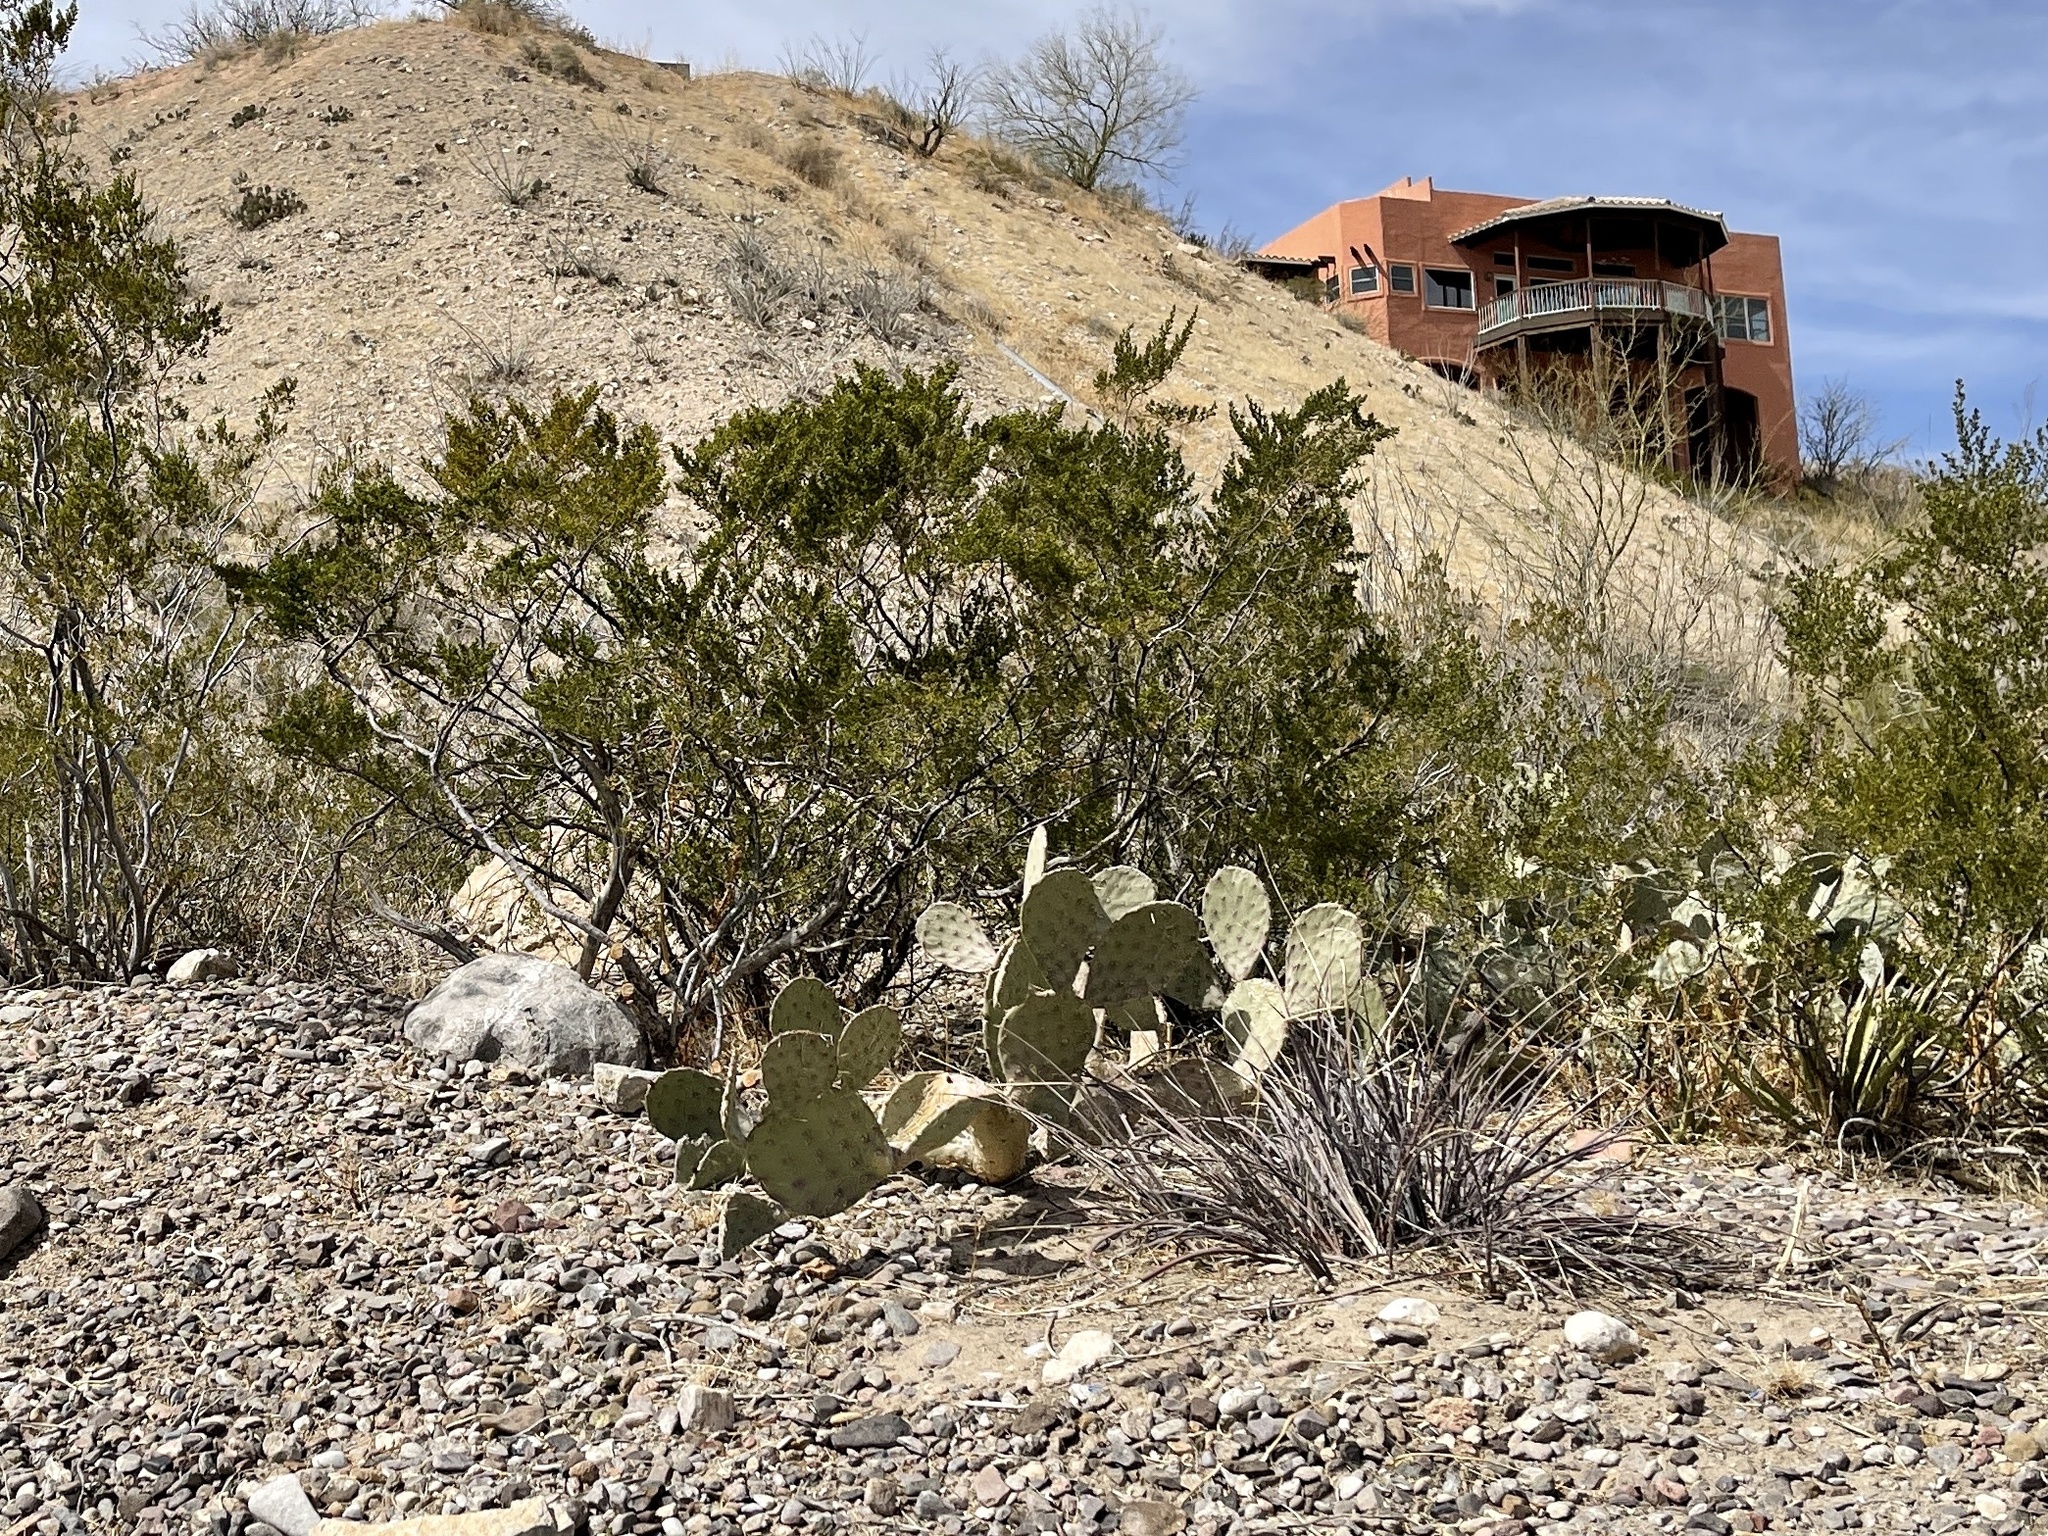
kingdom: Plantae
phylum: Tracheophyta
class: Magnoliopsida
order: Zygophyllales
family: Zygophyllaceae
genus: Larrea
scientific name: Larrea tridentata
